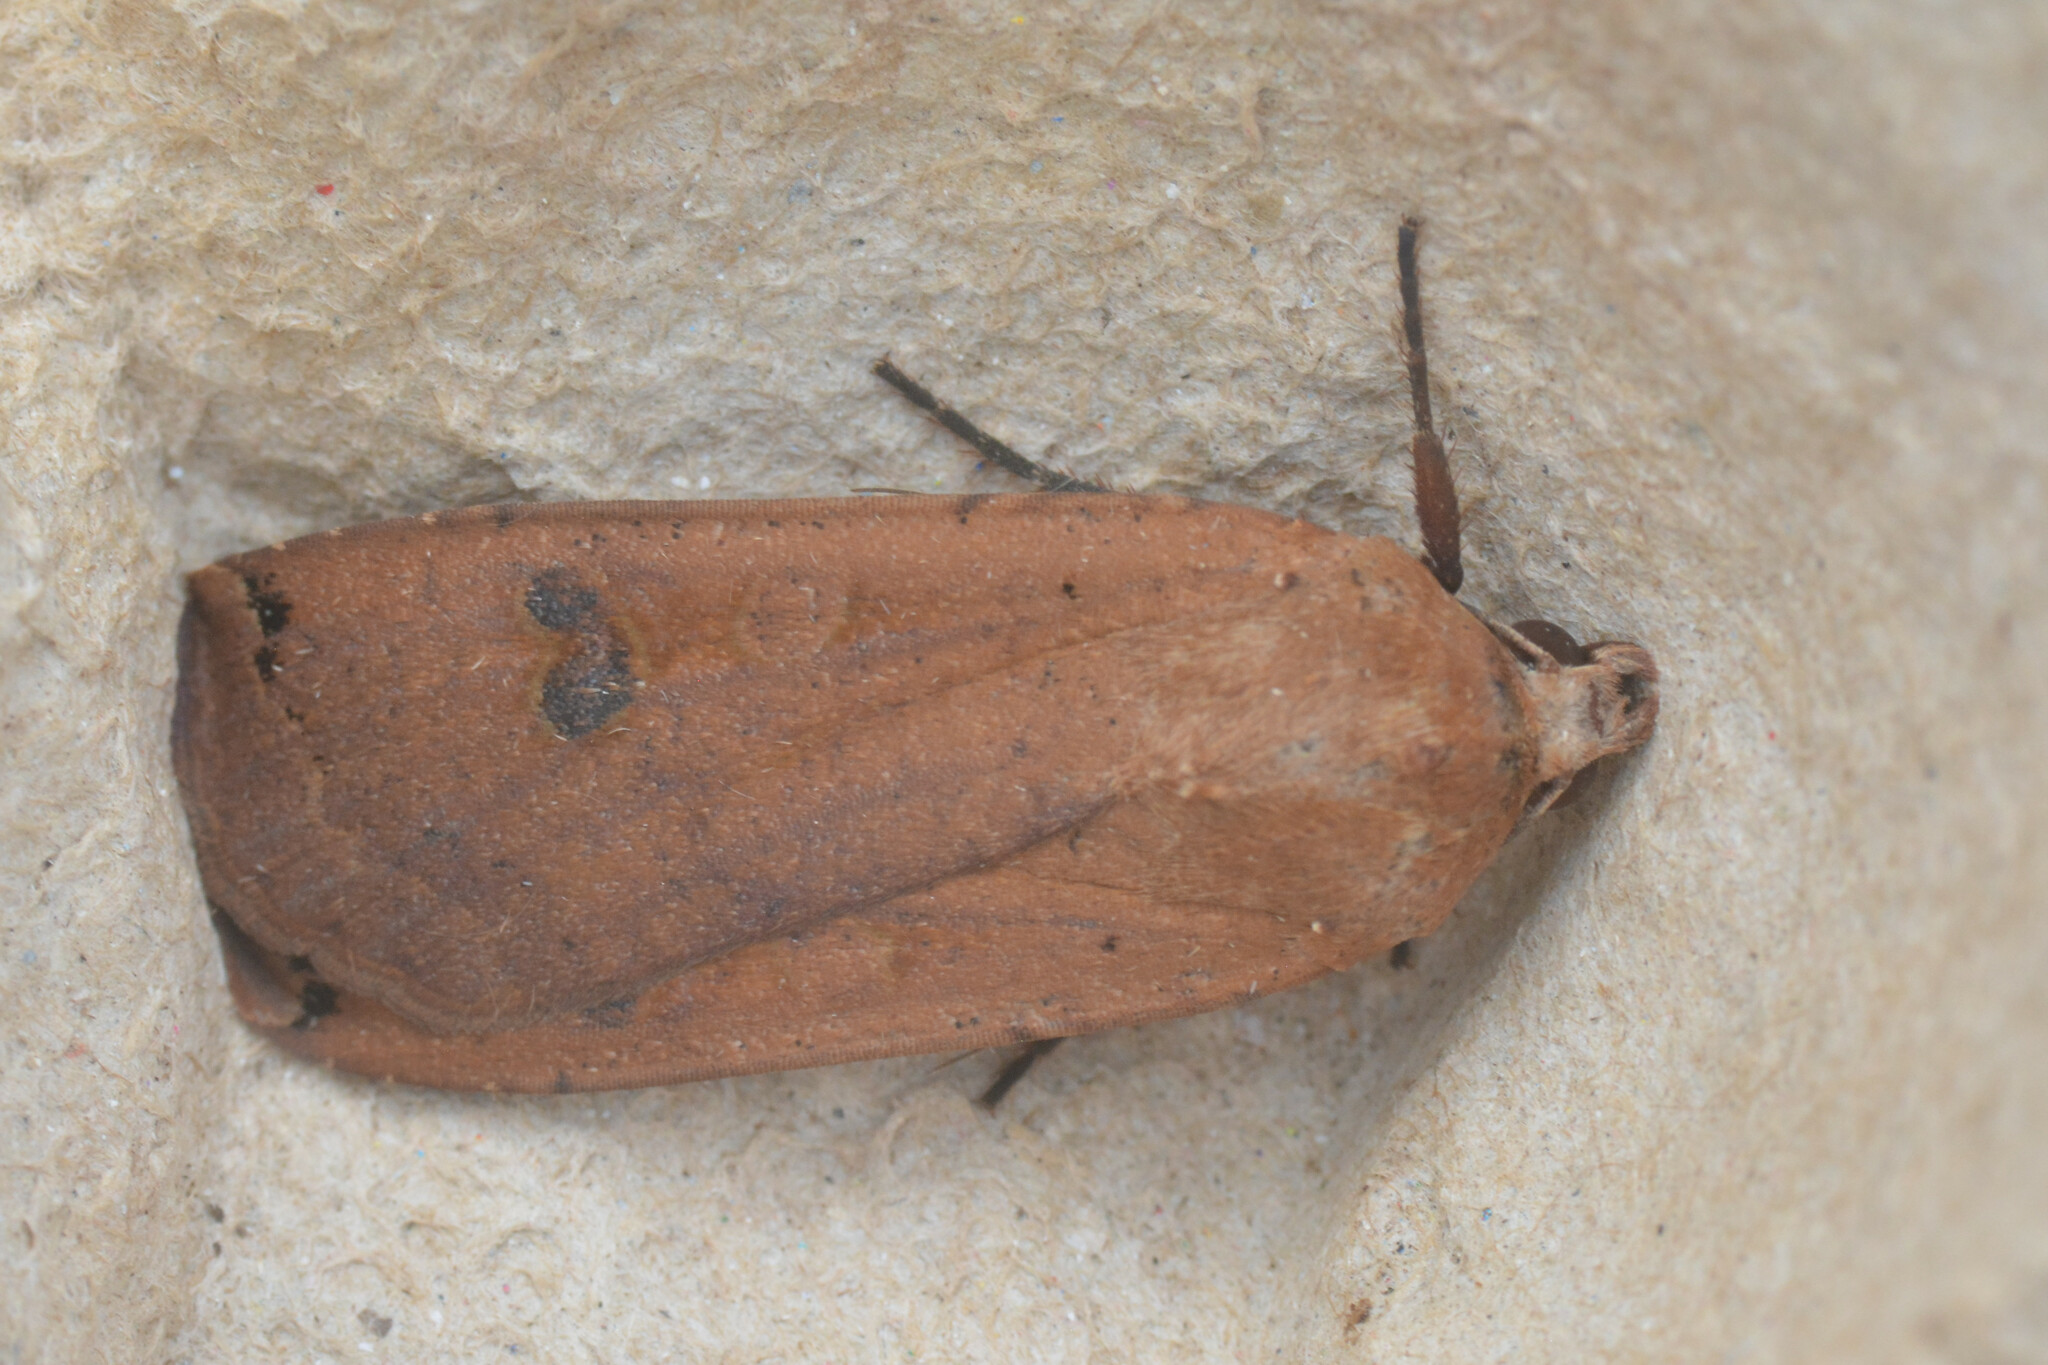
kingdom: Animalia
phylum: Arthropoda
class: Insecta
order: Lepidoptera
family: Noctuidae
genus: Noctua
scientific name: Noctua pronuba
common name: Large yellow underwing
